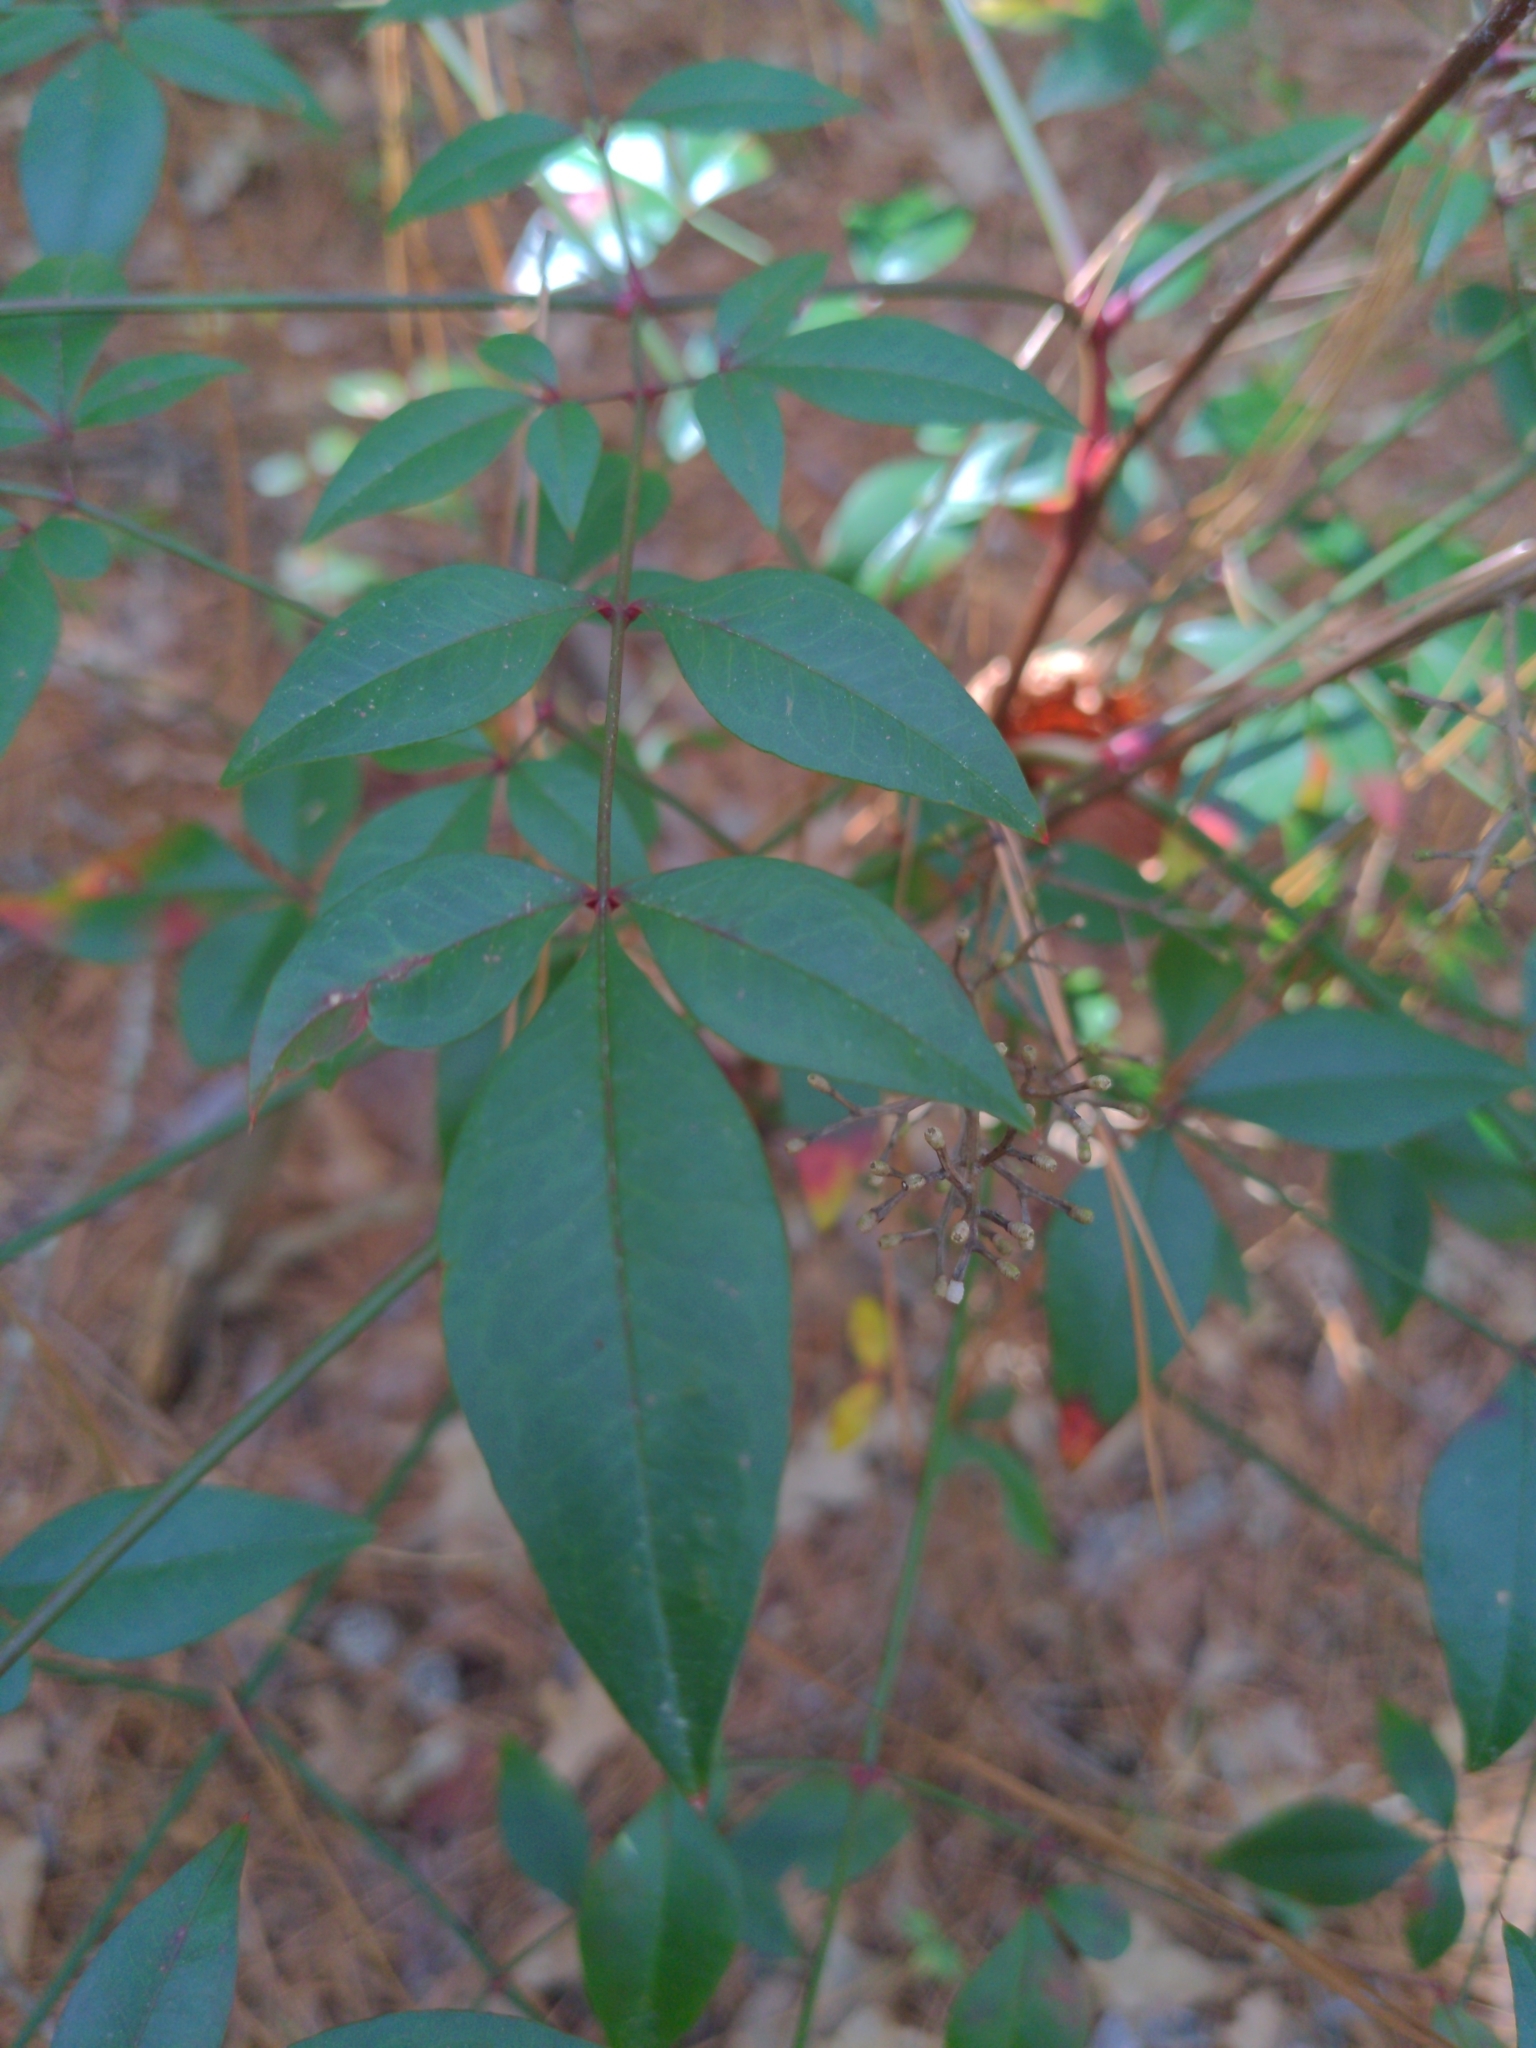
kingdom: Plantae
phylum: Tracheophyta
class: Magnoliopsida
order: Ranunculales
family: Berberidaceae
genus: Nandina
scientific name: Nandina domestica
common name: Sacred bamboo
